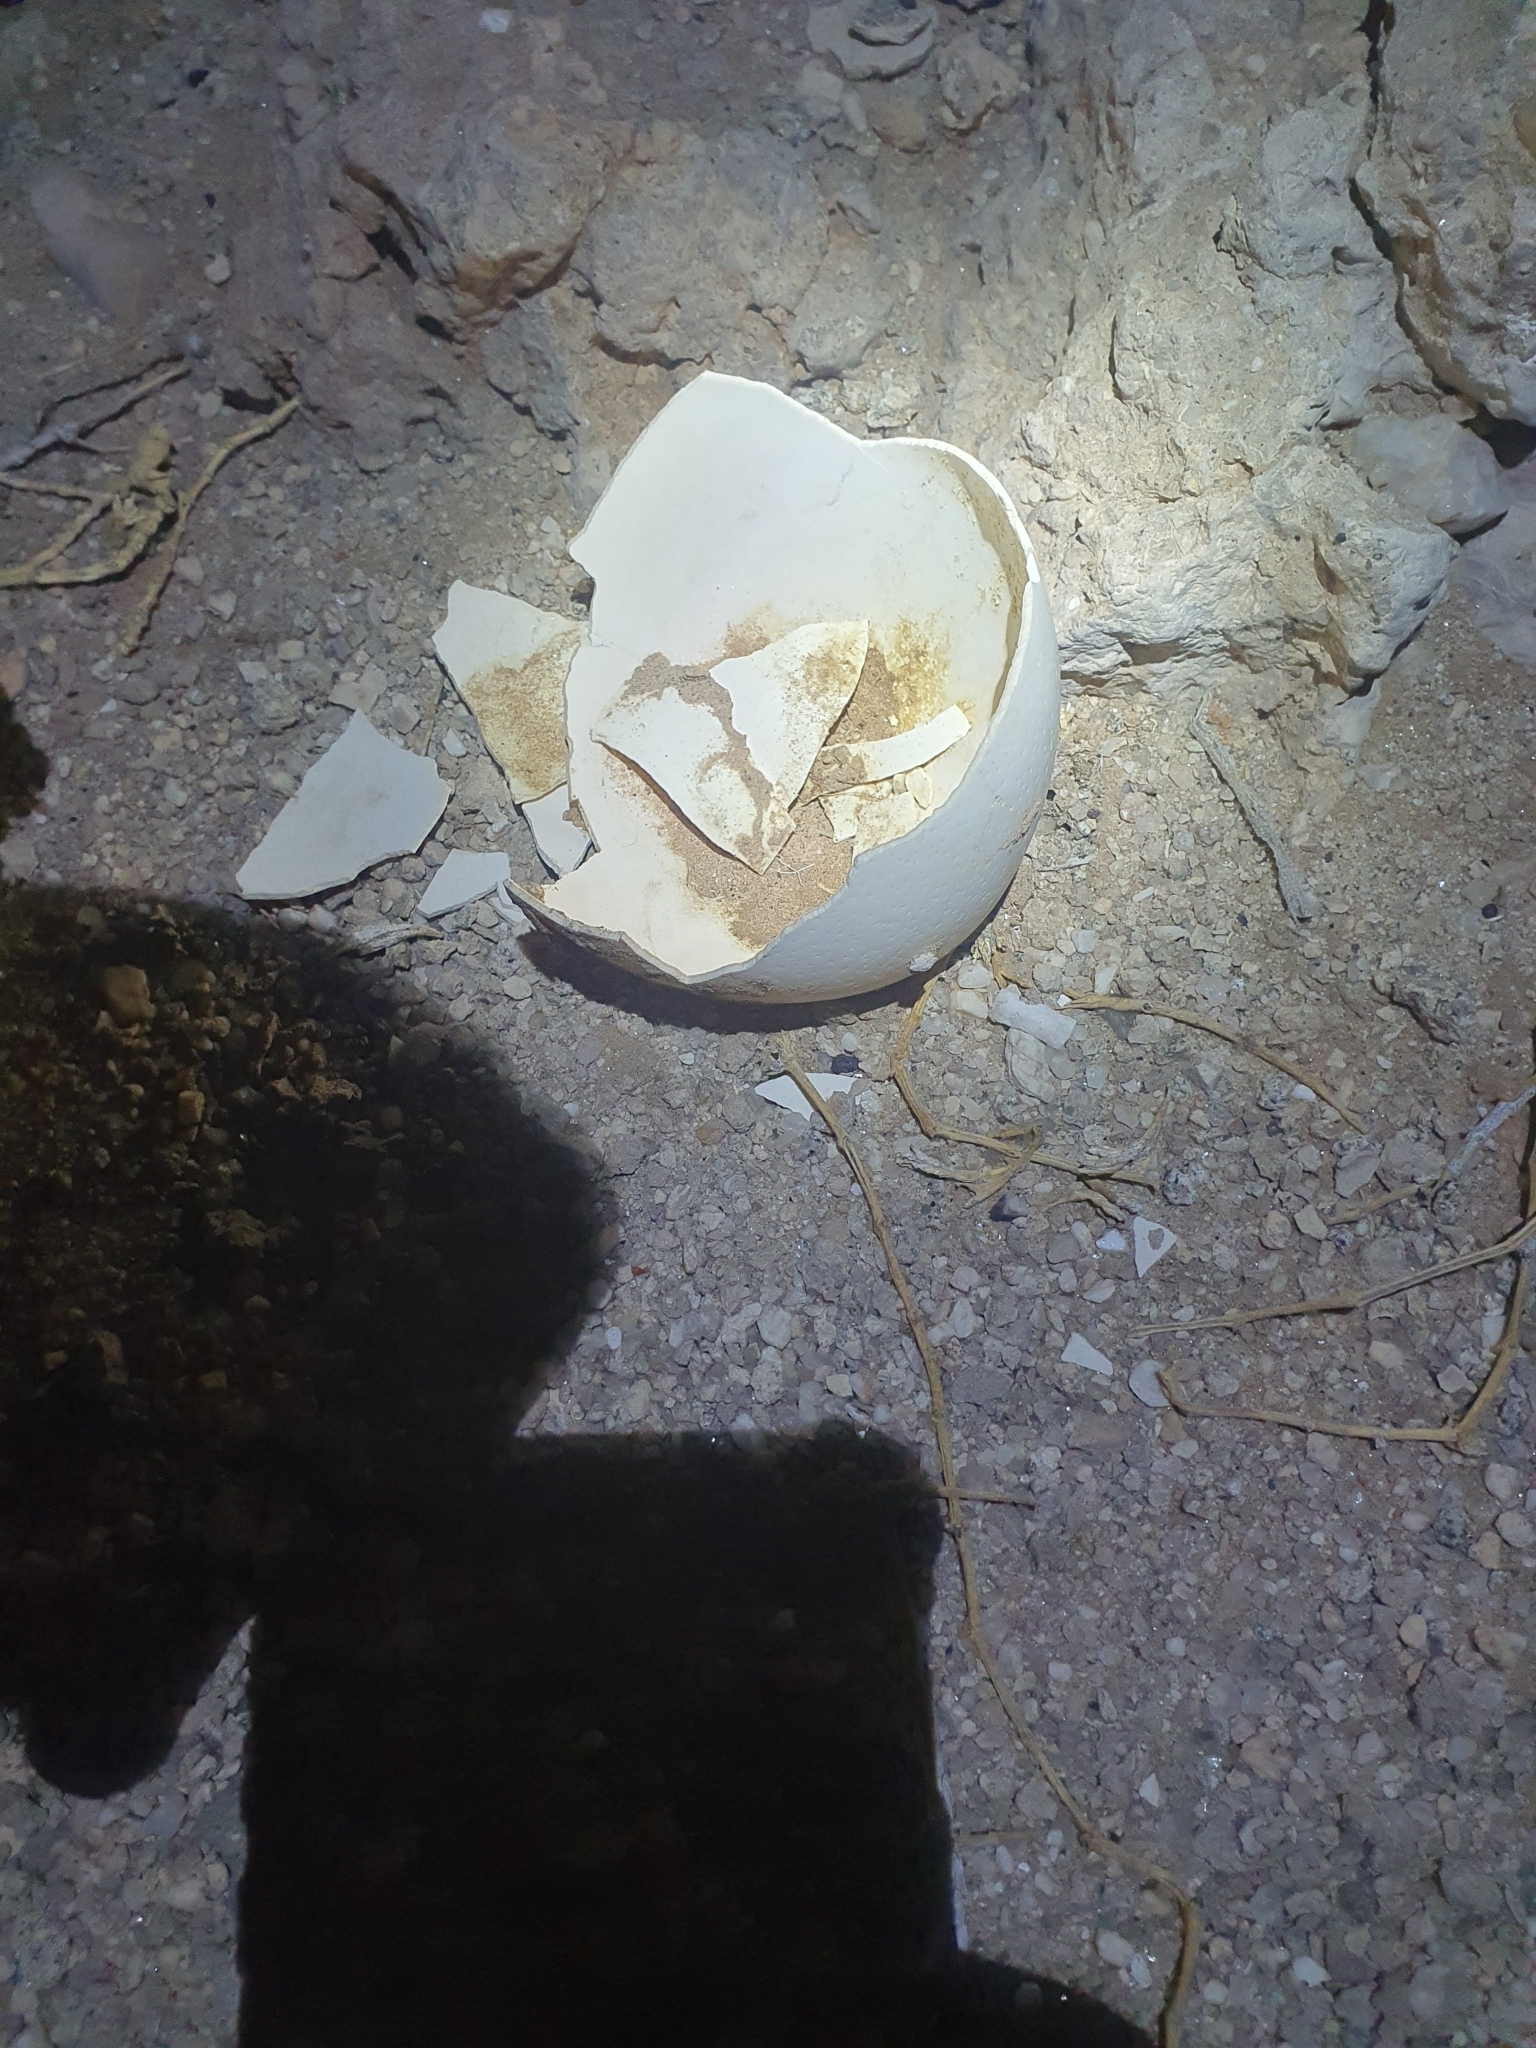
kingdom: Animalia
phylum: Chordata
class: Aves
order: Struthioniformes
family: Struthionidae
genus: Struthio
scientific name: Struthio camelus
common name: Common ostrich
